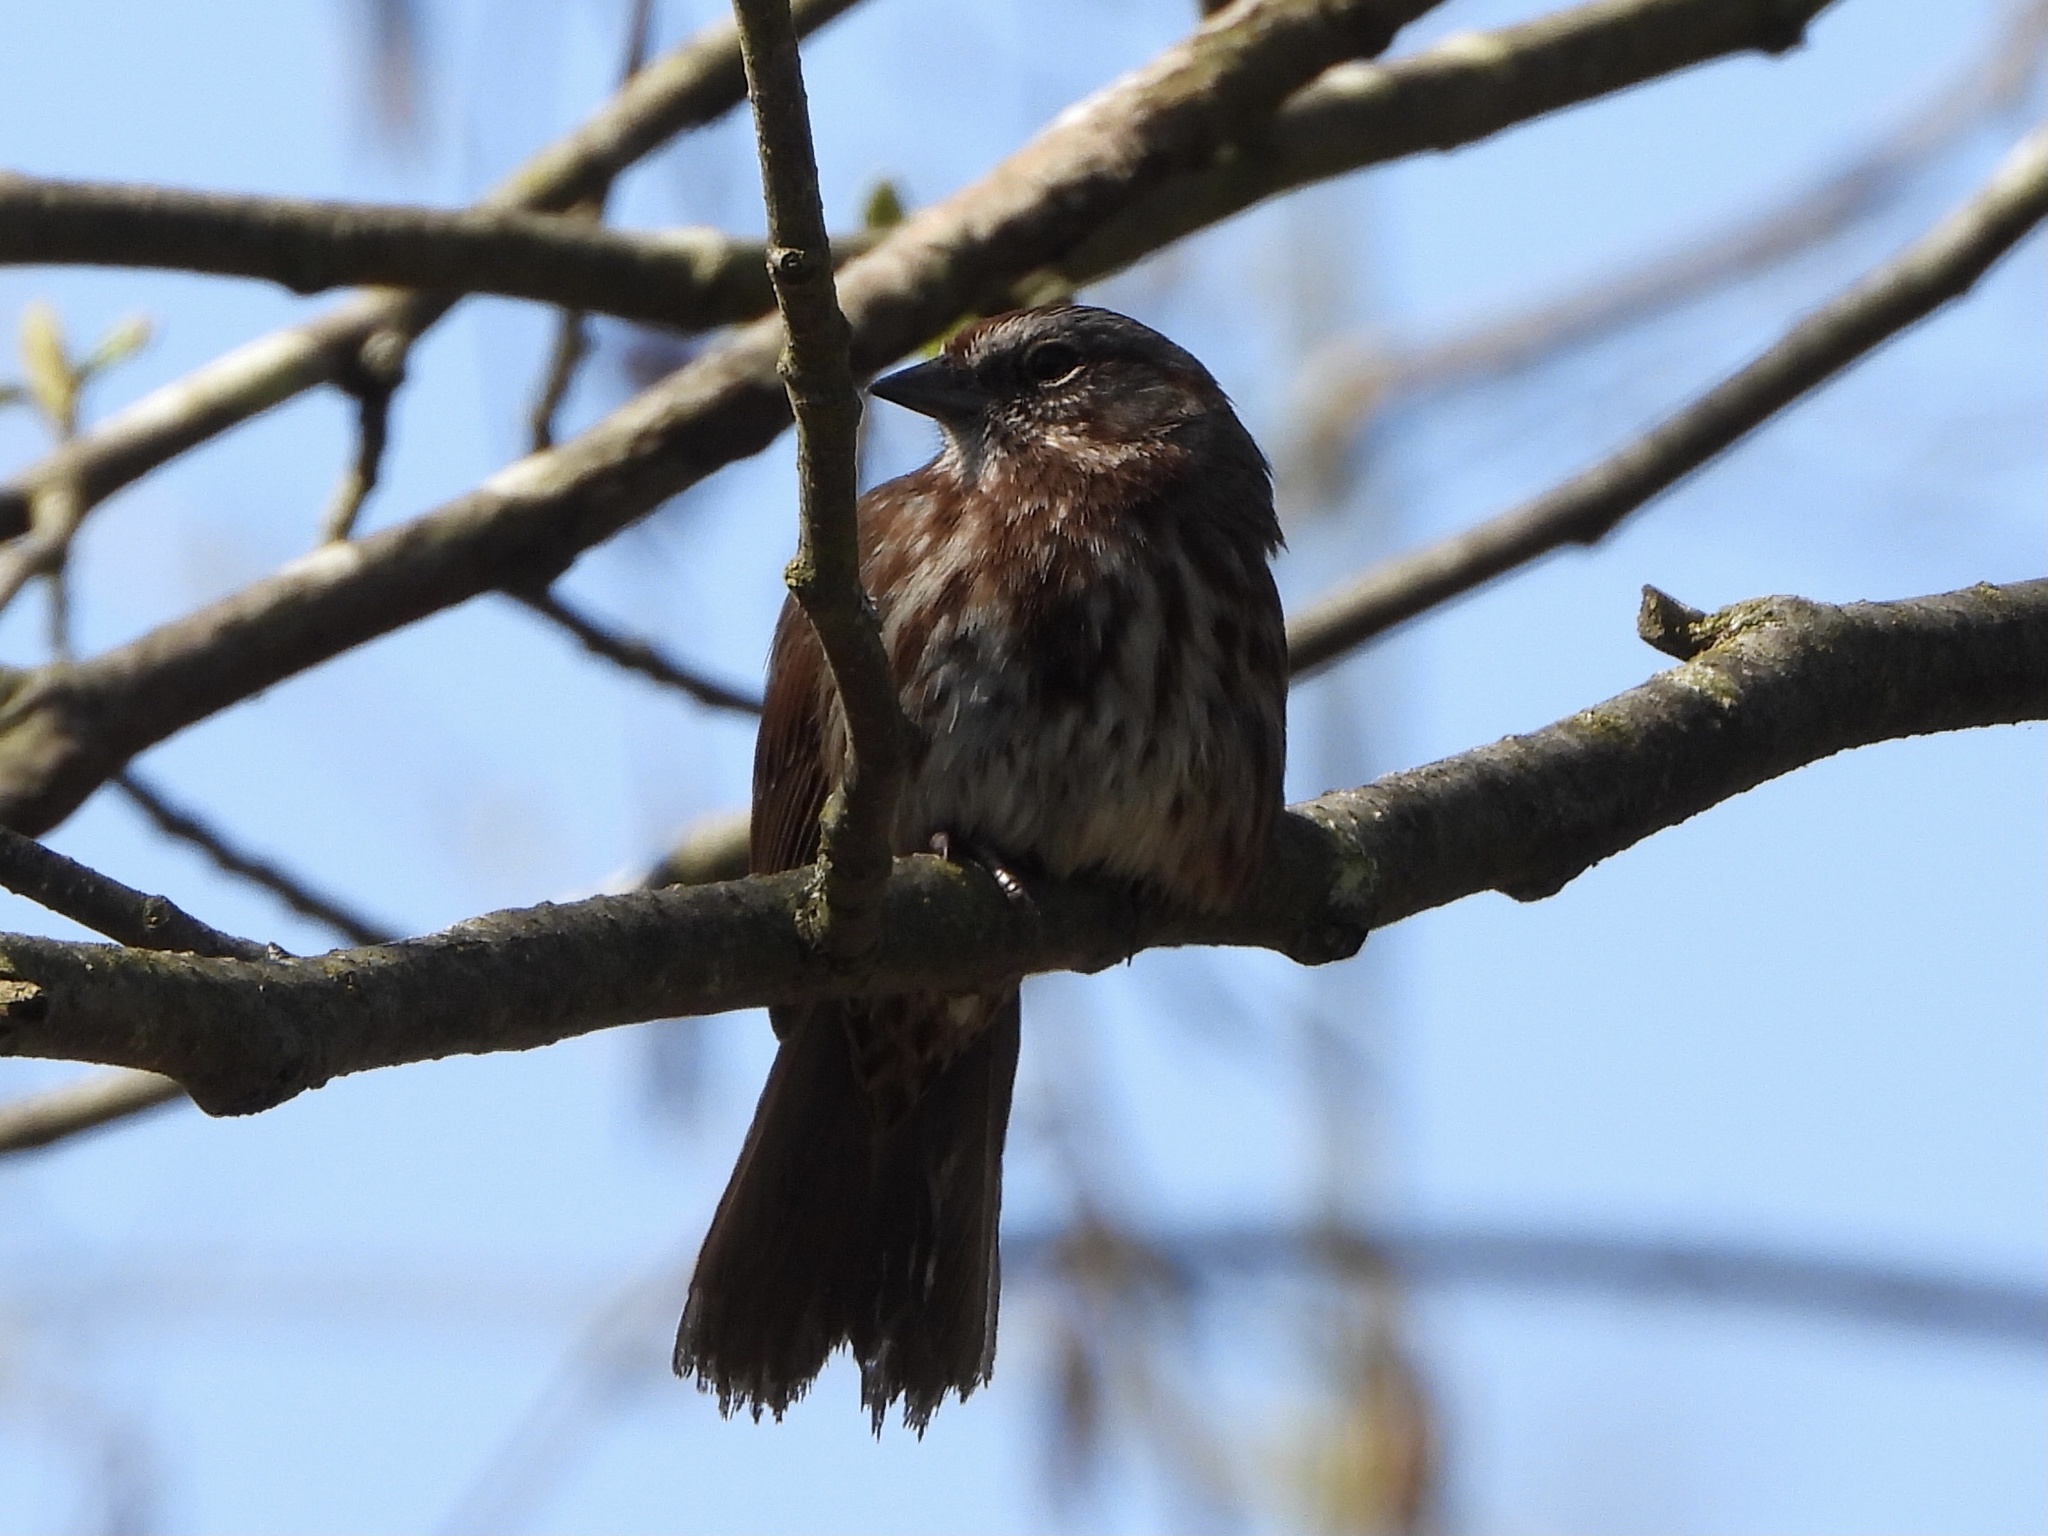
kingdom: Animalia
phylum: Chordata
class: Aves
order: Passeriformes
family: Passerellidae
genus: Melospiza
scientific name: Melospiza melodia
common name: Song sparrow
